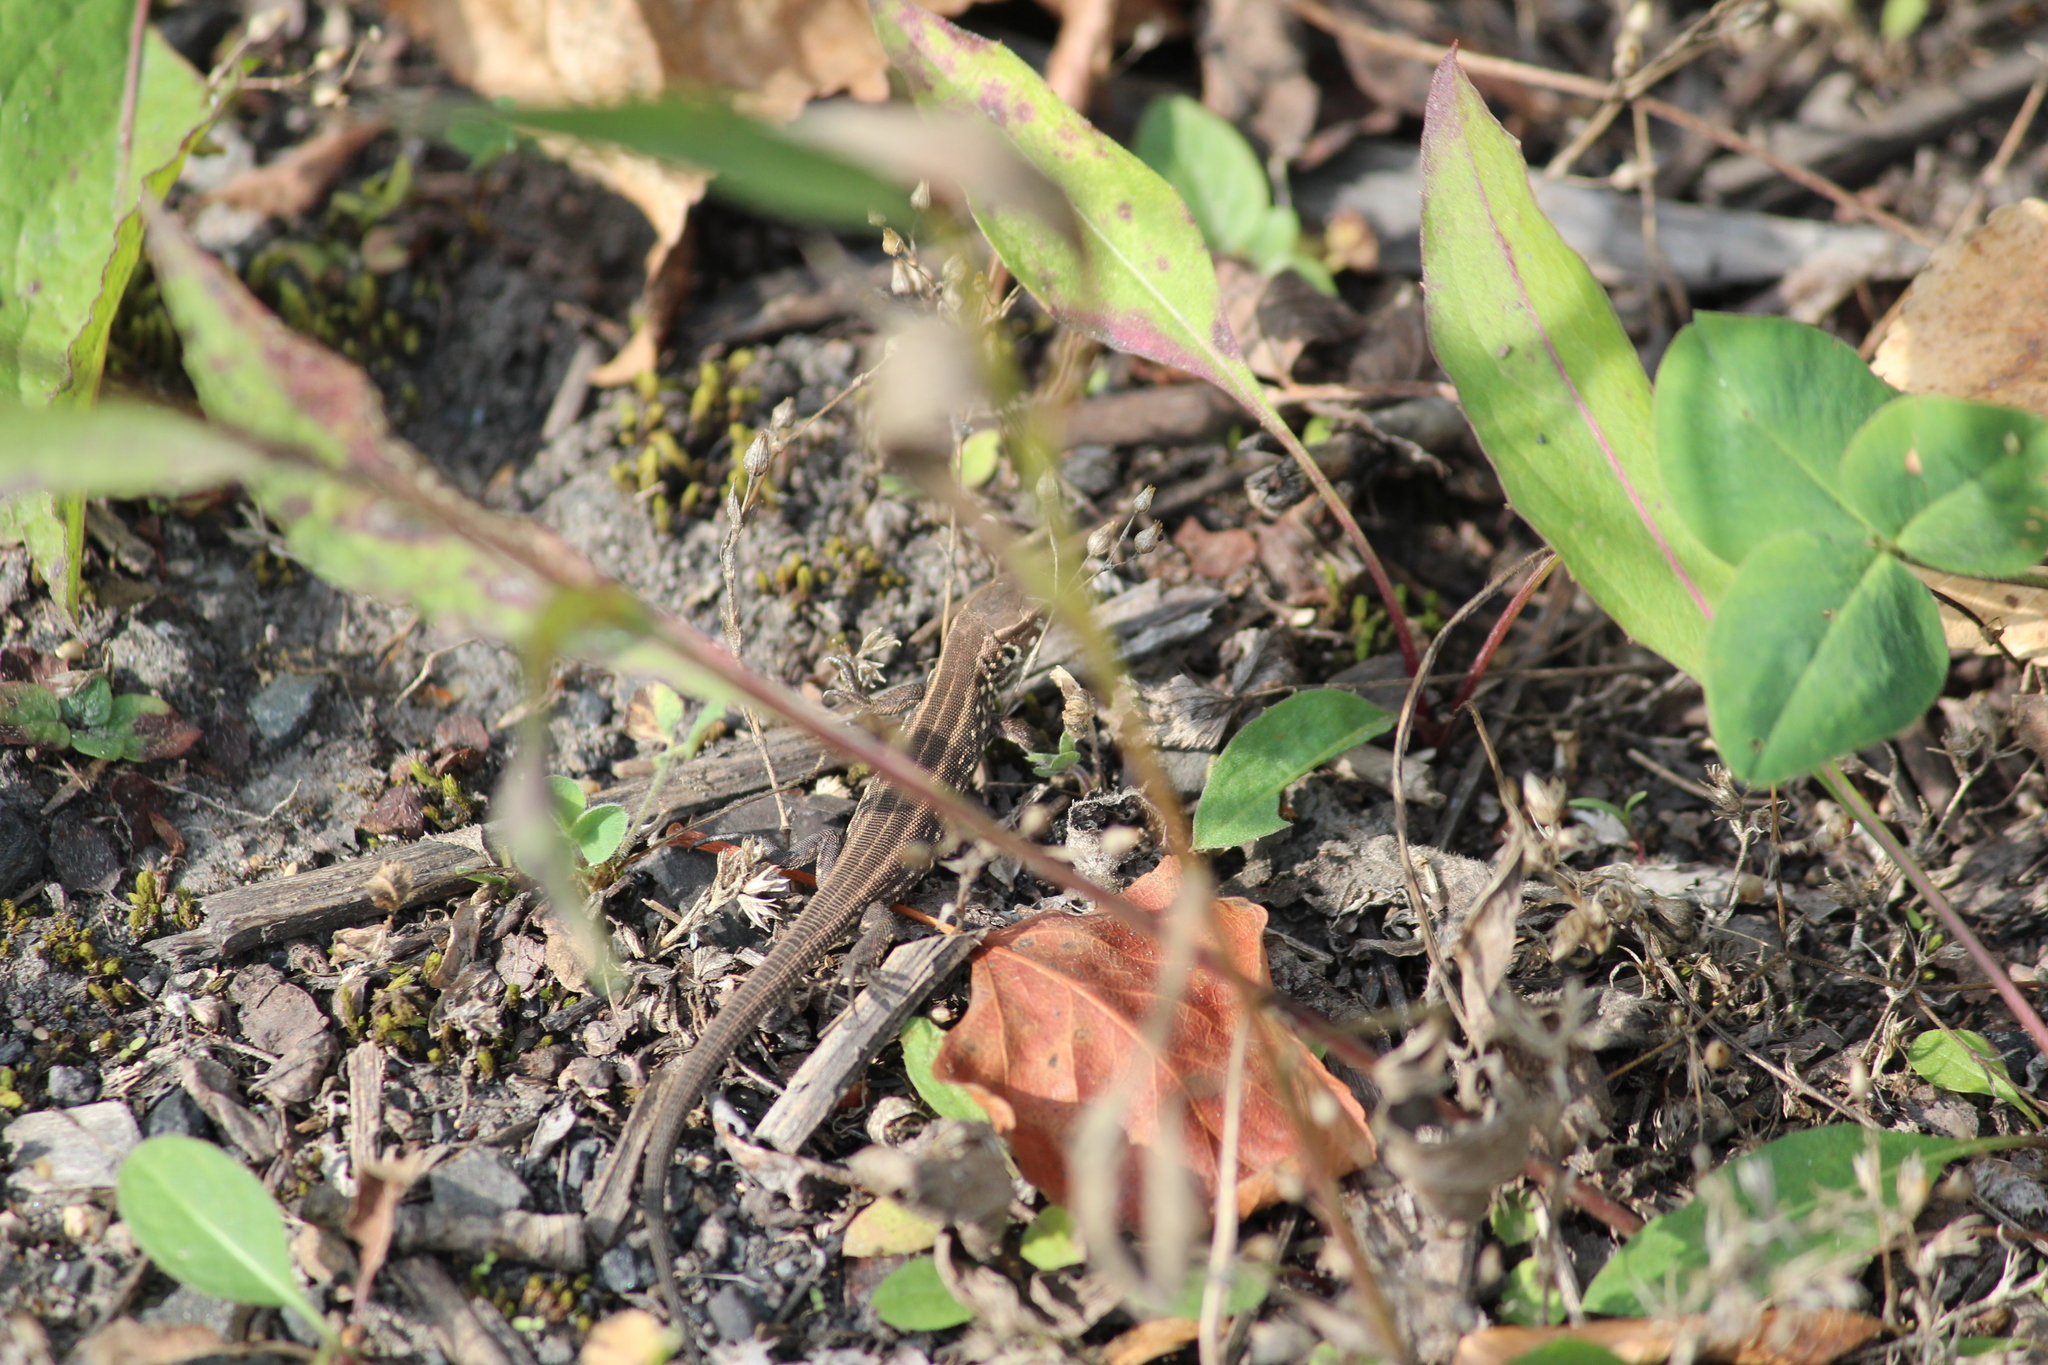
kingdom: Animalia
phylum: Chordata
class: Squamata
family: Lacertidae
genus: Lacerta
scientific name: Lacerta agilis
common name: Sand lizard
